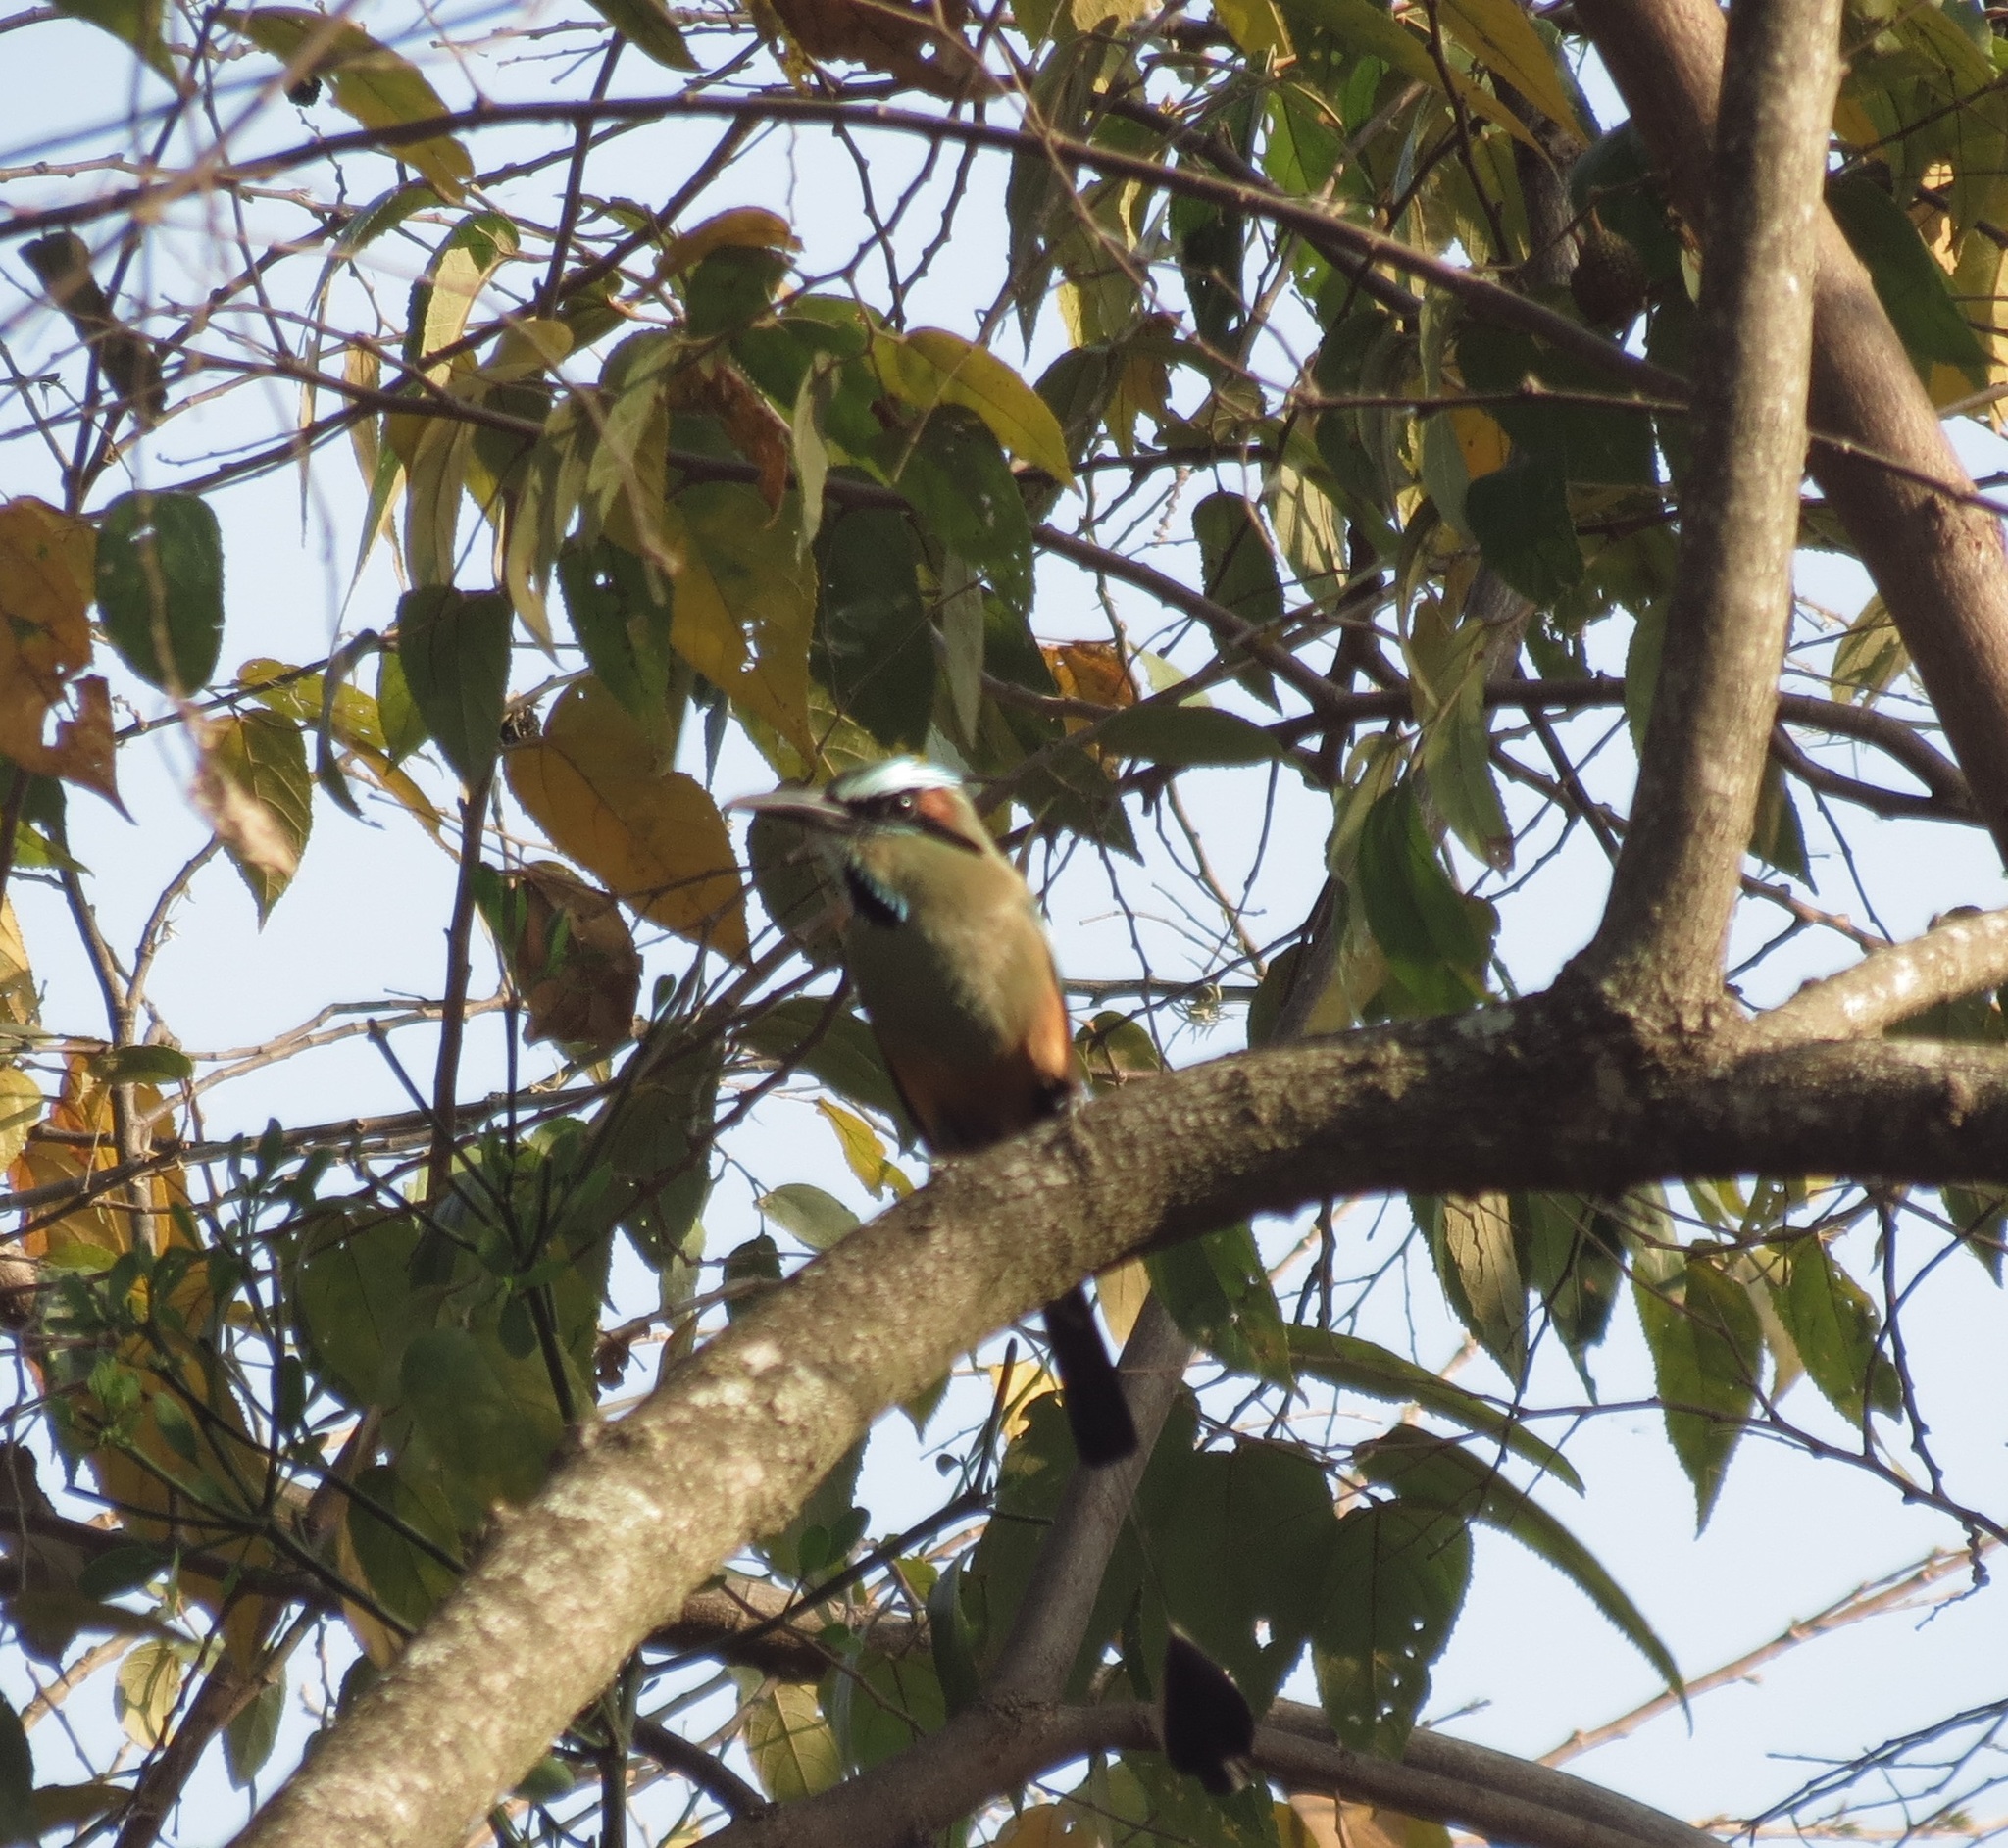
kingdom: Animalia
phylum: Chordata
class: Aves
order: Coraciiformes
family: Momotidae
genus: Eumomota
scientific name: Eumomota superciliosa
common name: Turquoise-browed motmot
